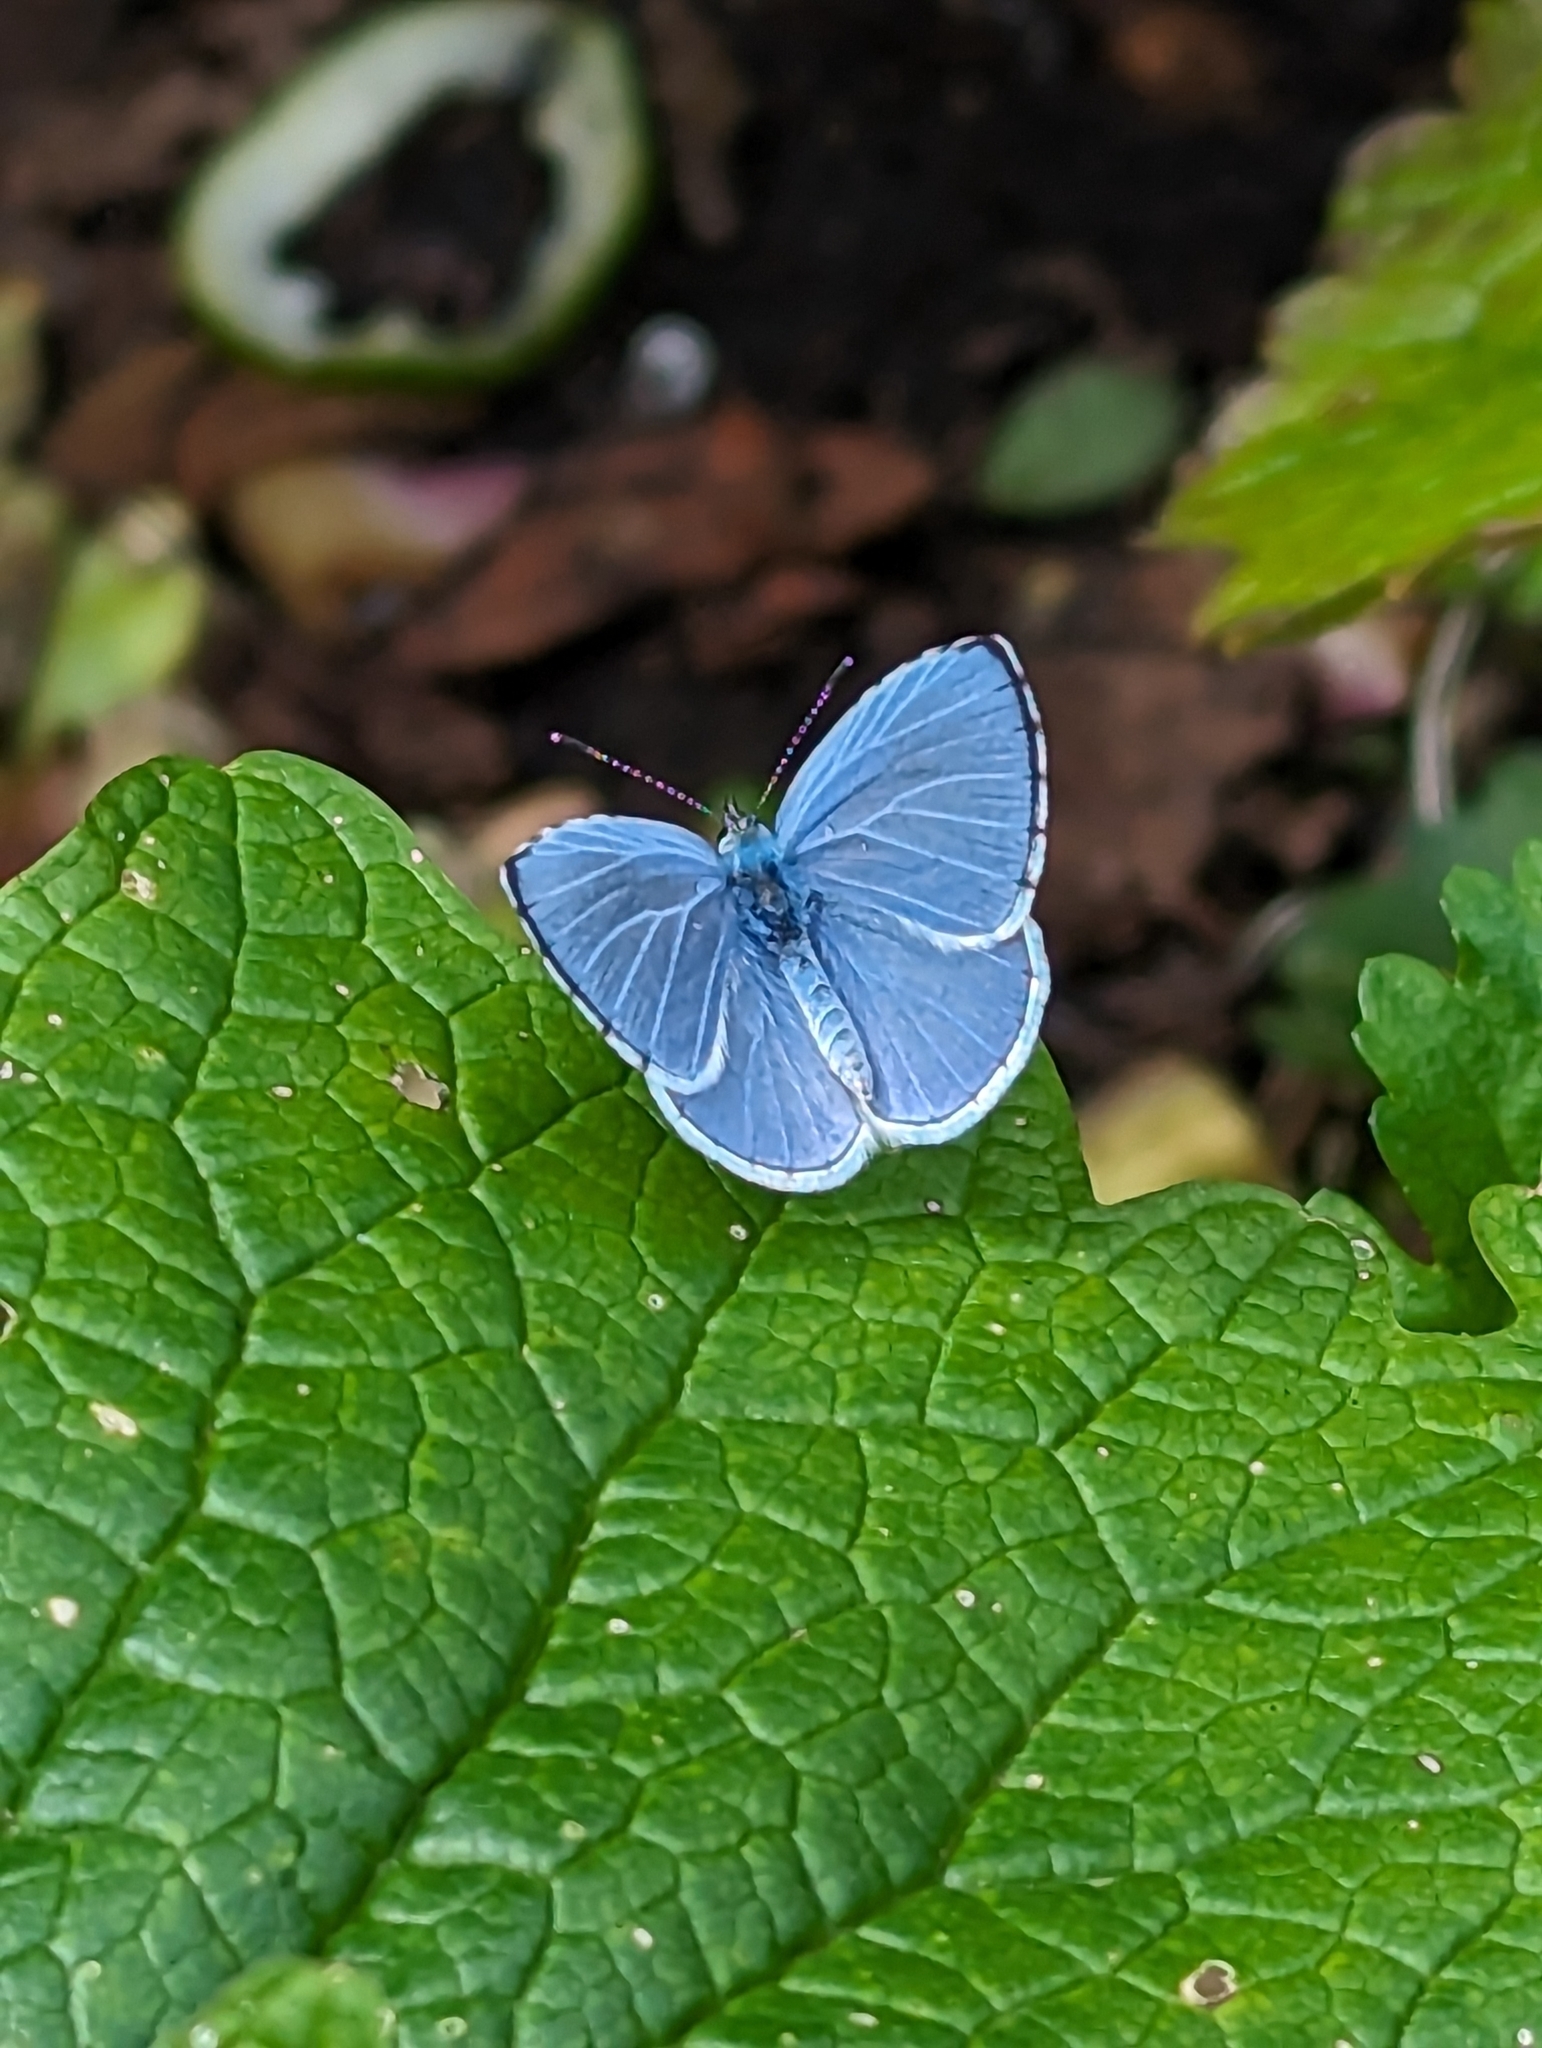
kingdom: Animalia
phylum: Arthropoda
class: Insecta
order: Lepidoptera
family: Lycaenidae
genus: Celastrina
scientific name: Celastrina argiolus
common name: Holly blue
